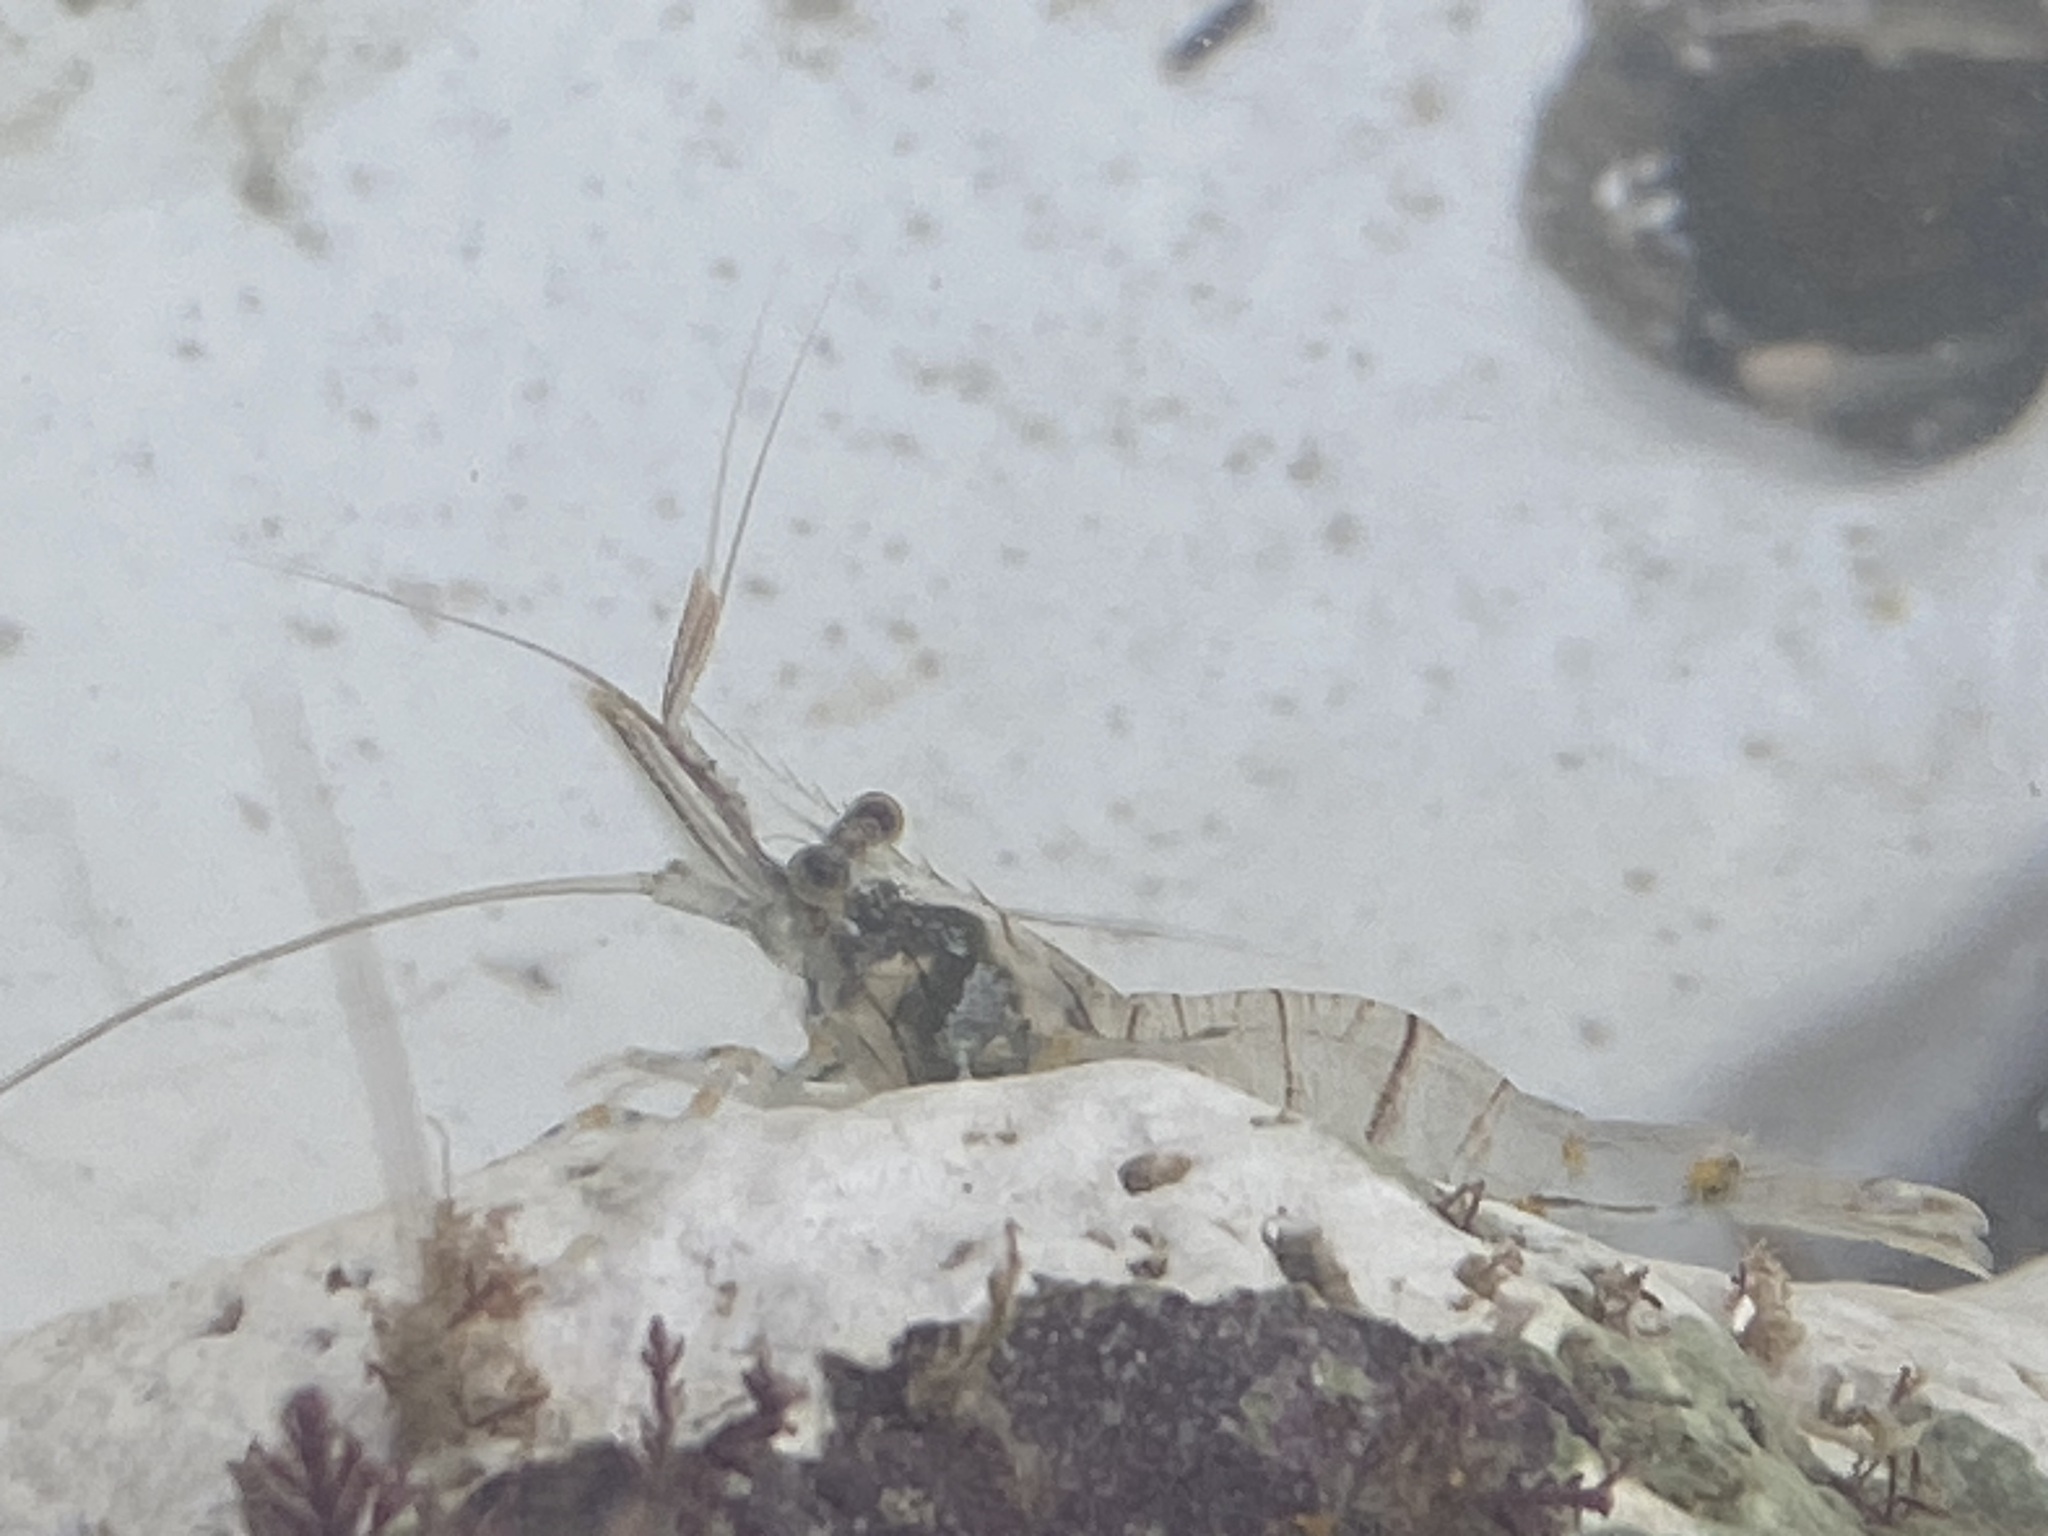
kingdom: Animalia
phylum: Arthropoda
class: Malacostraca
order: Decapoda
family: Palaemonidae
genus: Palaemon
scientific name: Palaemon elegans
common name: Grass prawm
